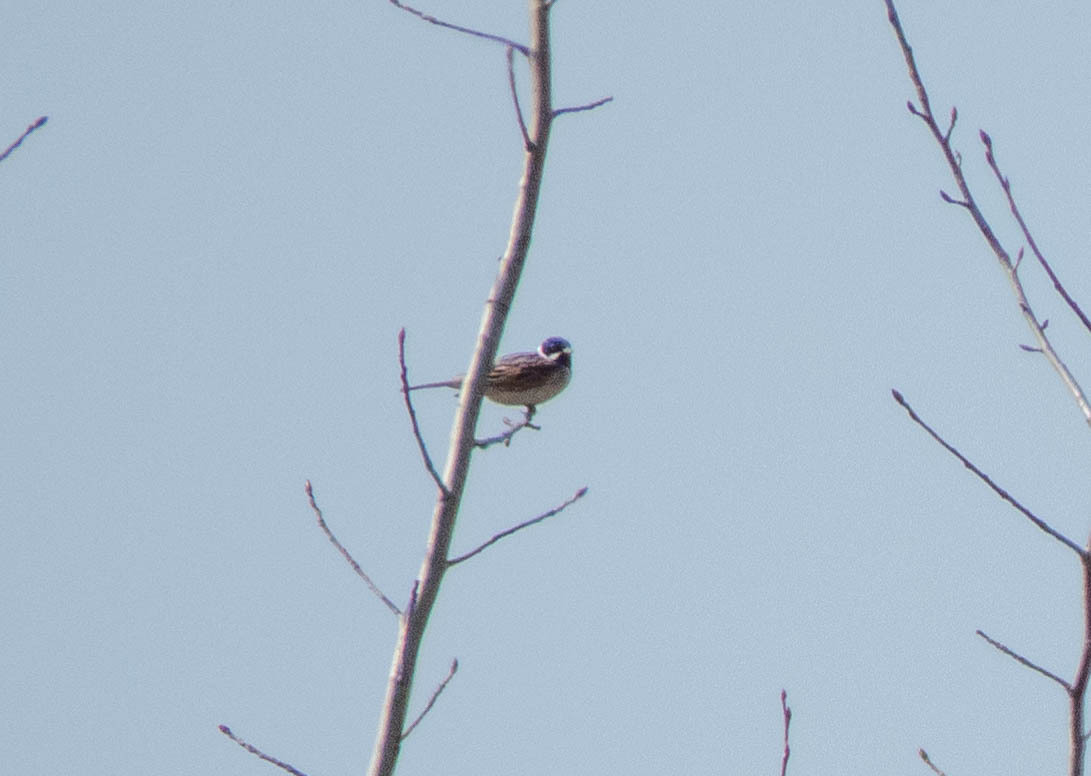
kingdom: Animalia
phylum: Chordata
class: Aves
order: Passeriformes
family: Emberizidae
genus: Emberiza
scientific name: Emberiza schoeniclus
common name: Reed bunting
